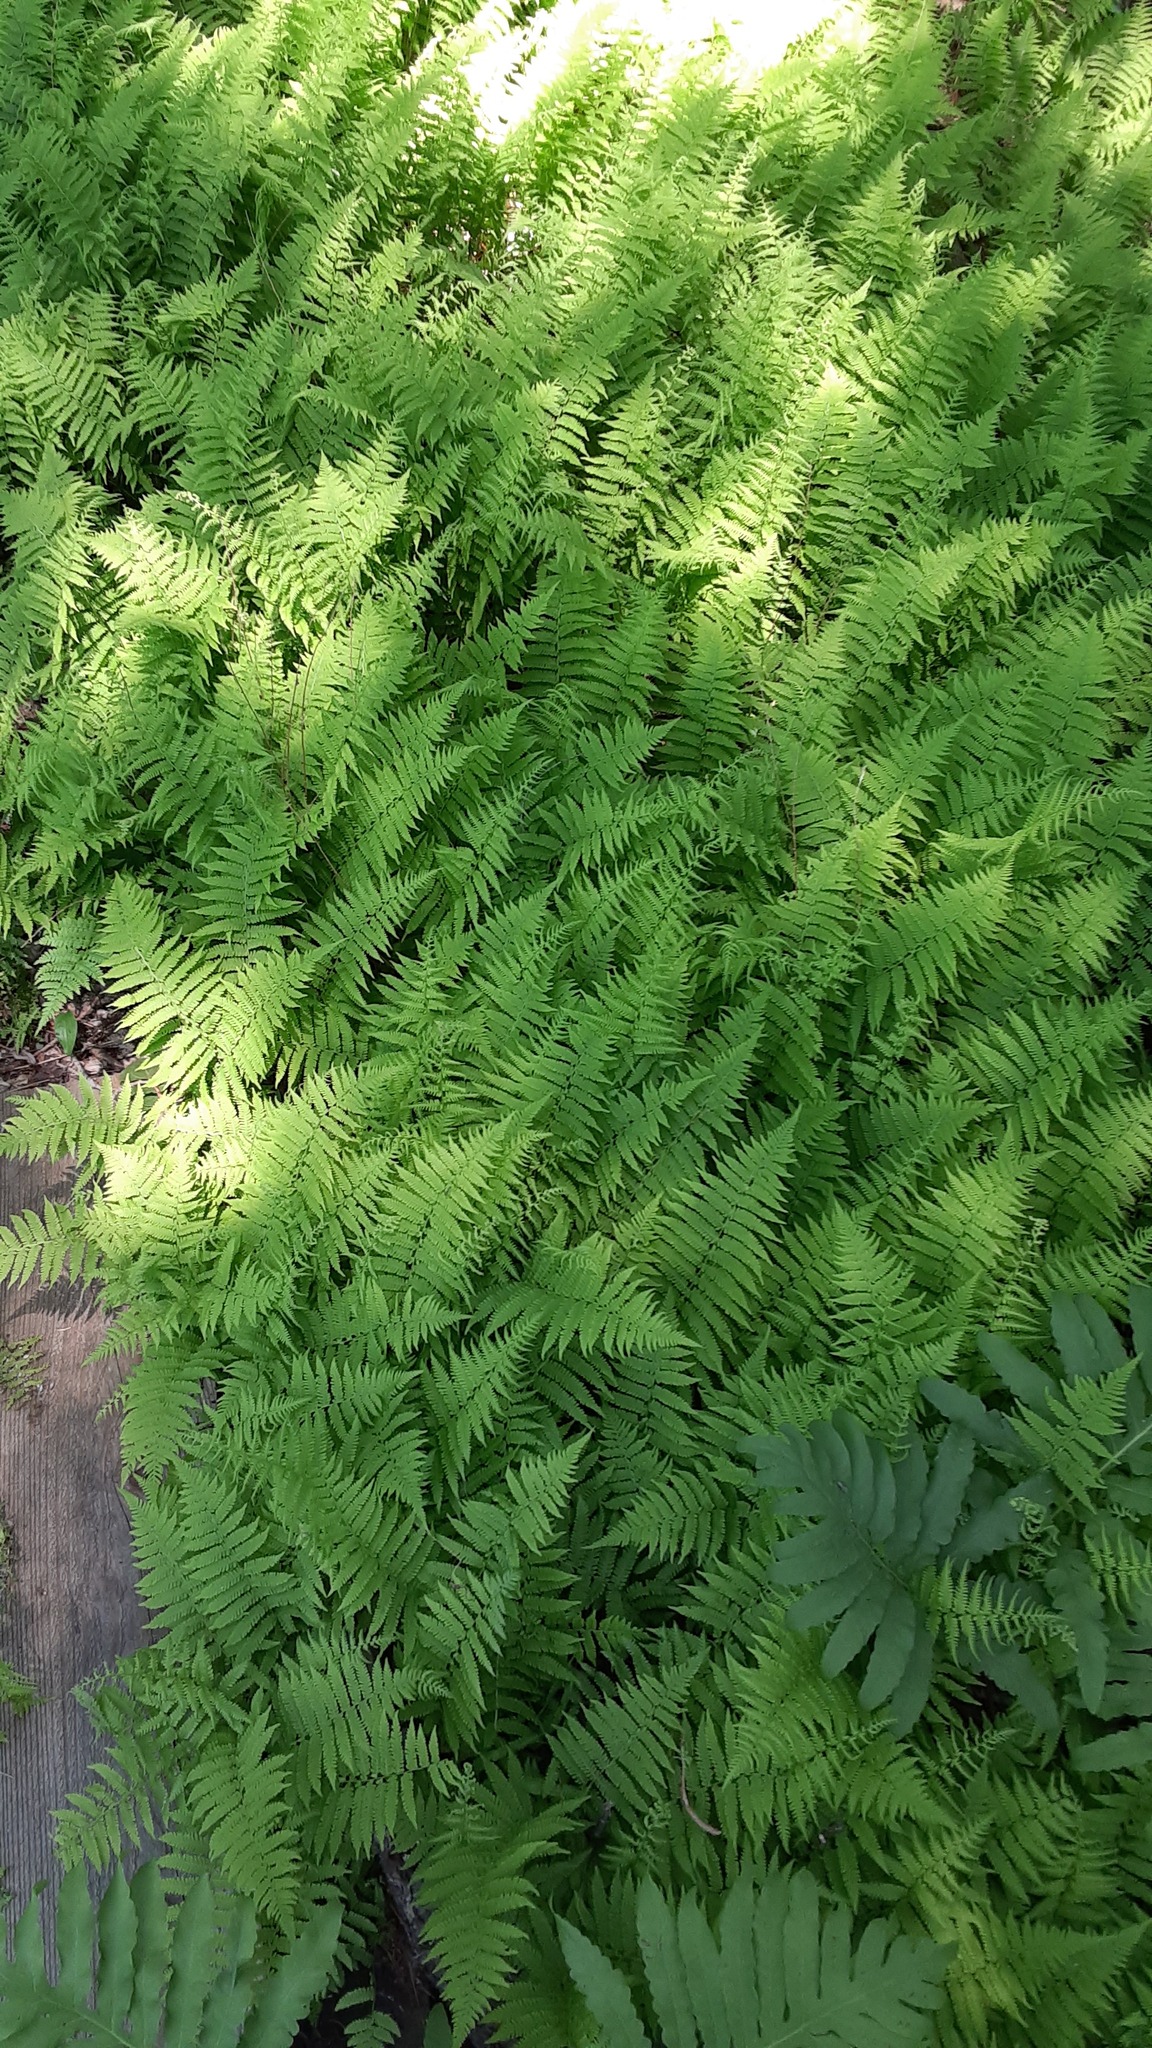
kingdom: Plantae
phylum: Tracheophyta
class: Polypodiopsida
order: Polypodiales
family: Thelypteridaceae
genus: Amauropelta
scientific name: Amauropelta noveboracensis
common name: New york fern
